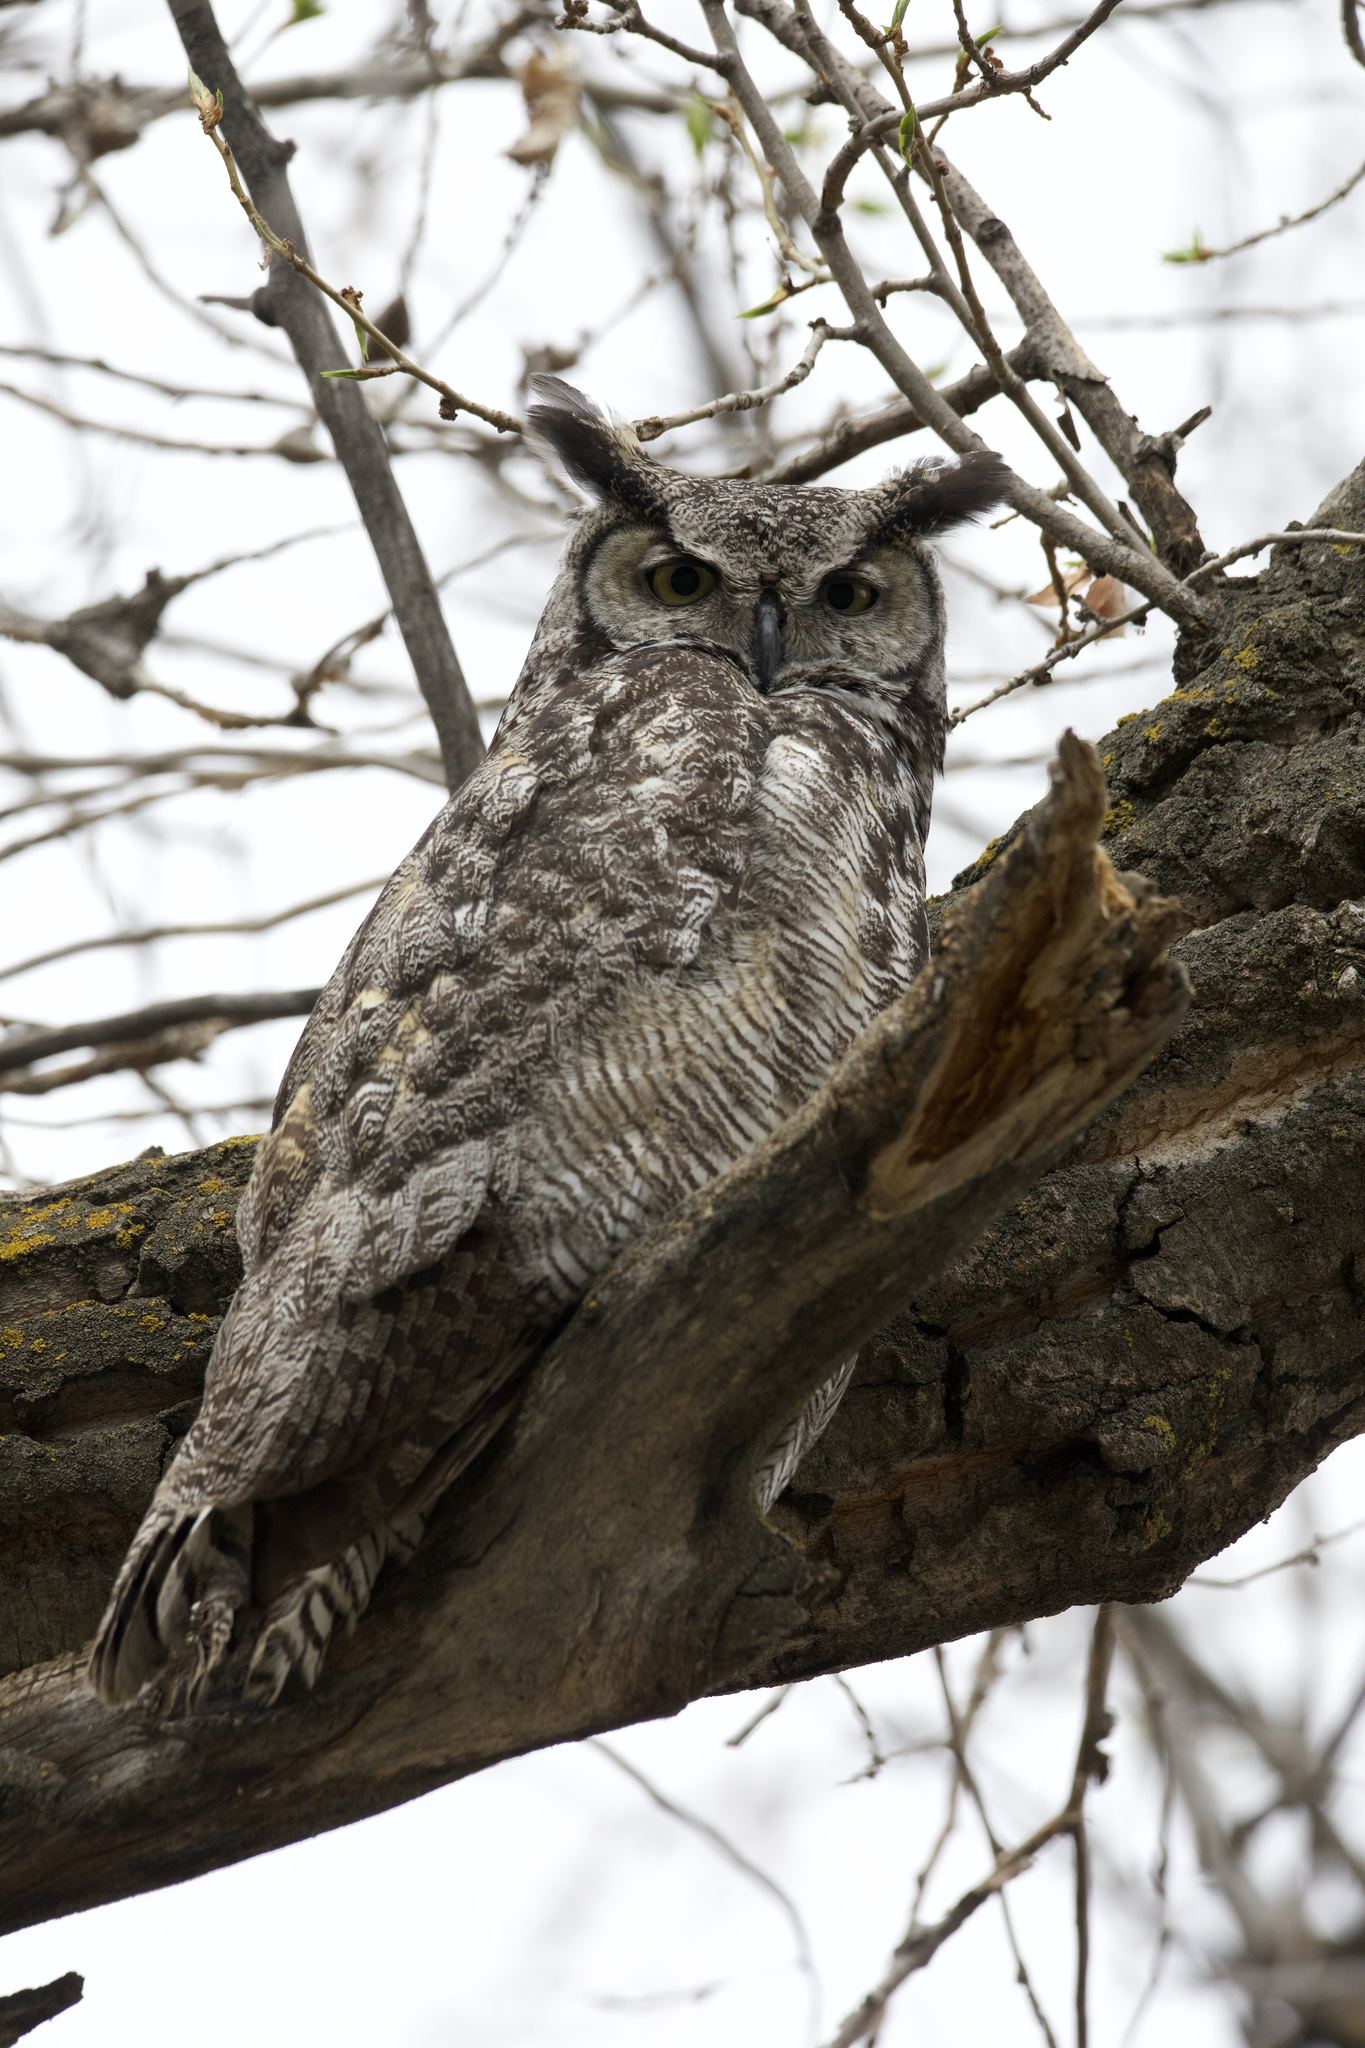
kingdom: Animalia
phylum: Chordata
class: Aves
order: Strigiformes
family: Strigidae
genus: Bubo
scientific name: Bubo virginianus
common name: Great horned owl
